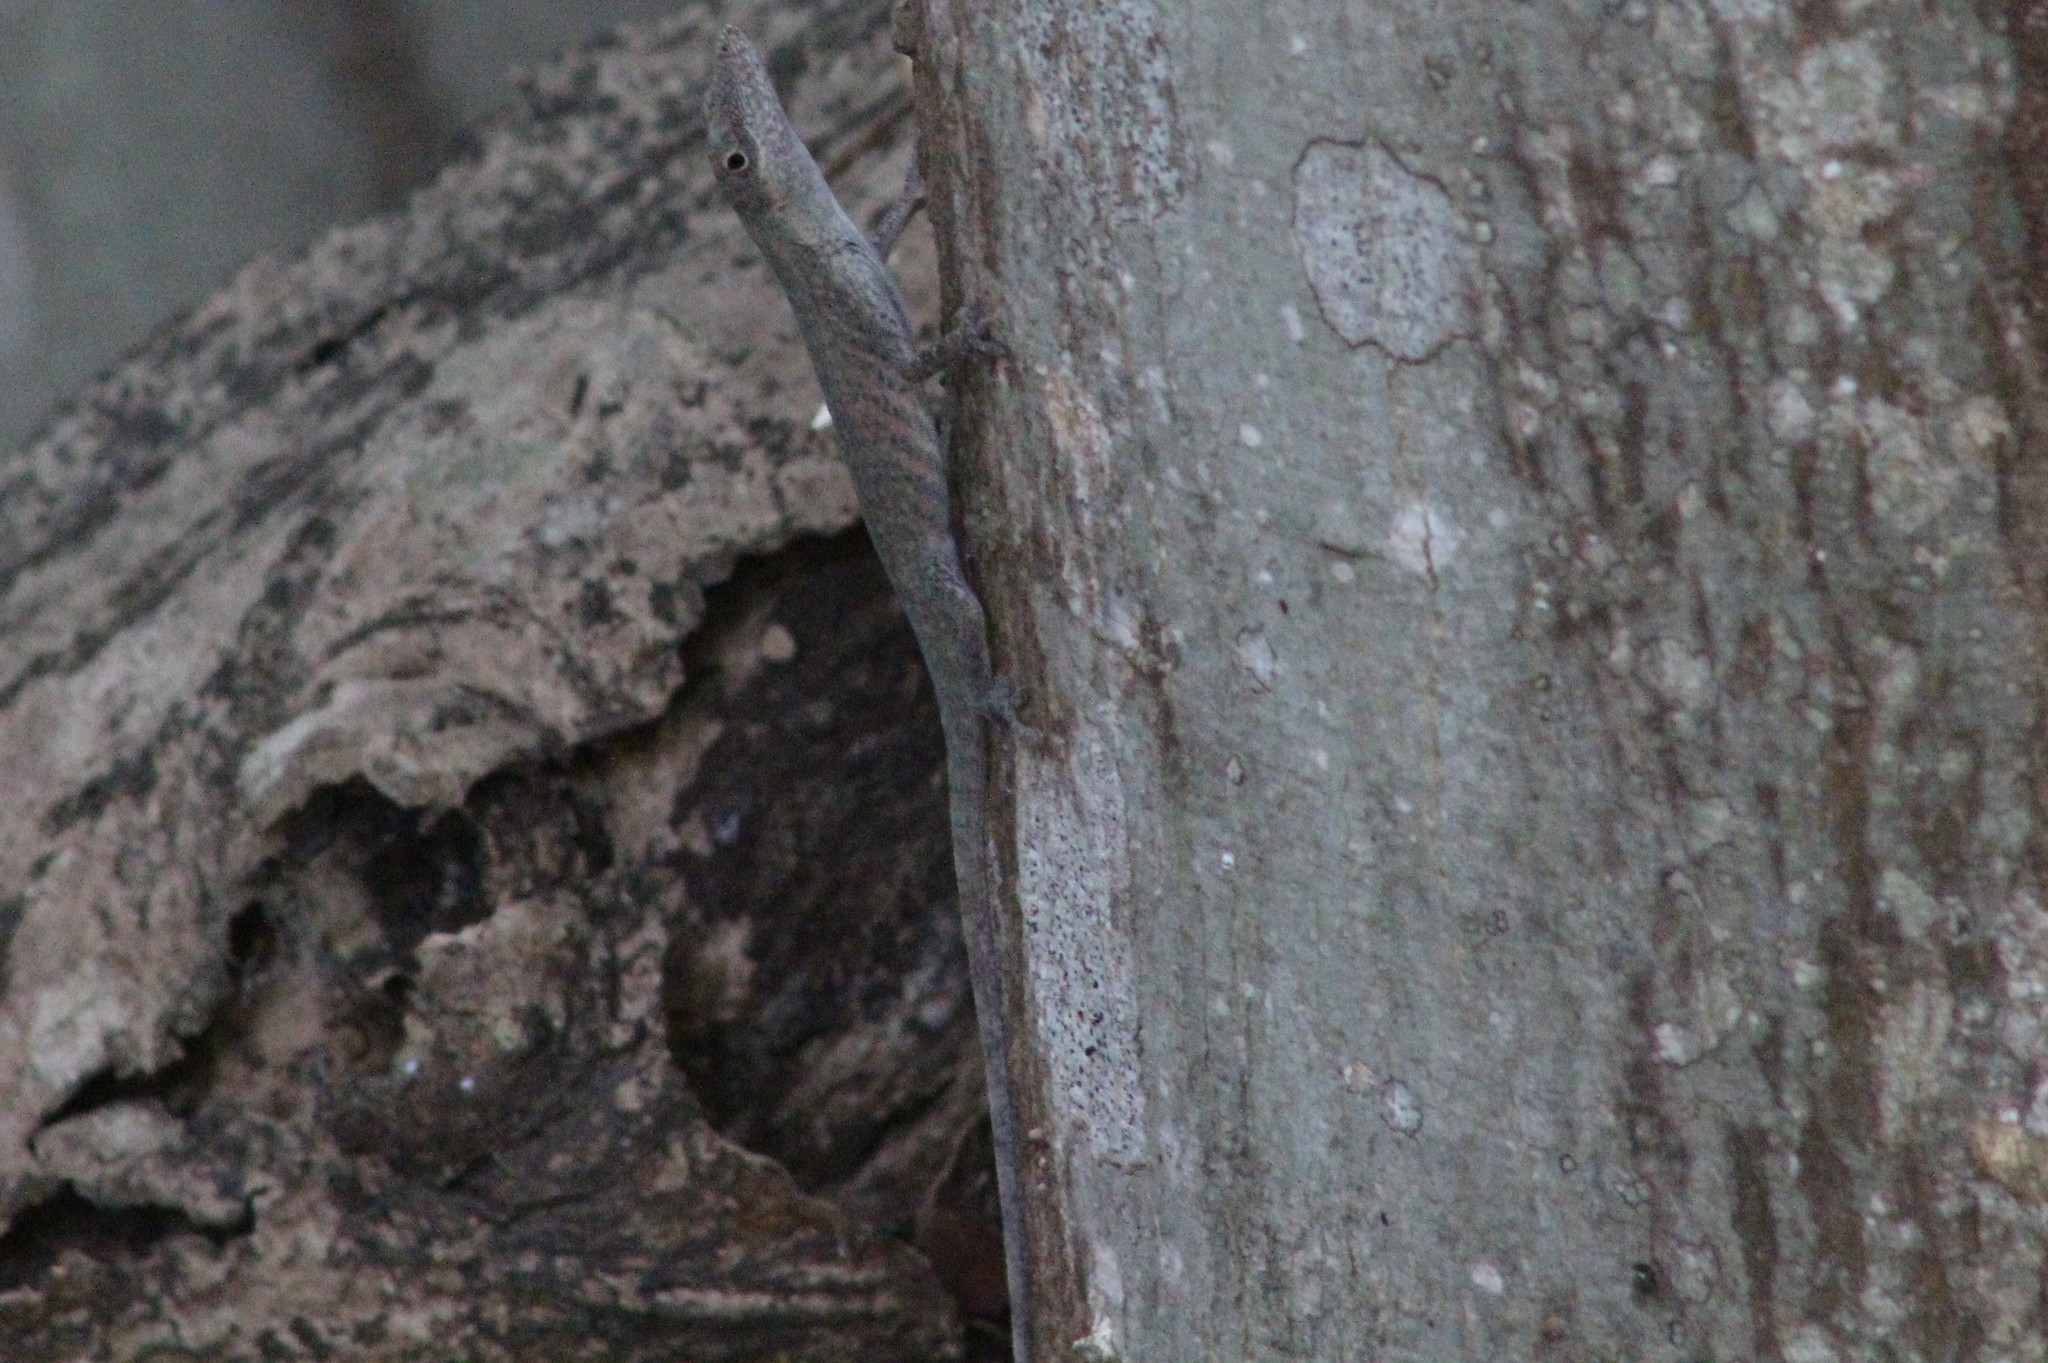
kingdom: Animalia
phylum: Chordata
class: Squamata
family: Dactyloidae
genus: Anolis
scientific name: Anolis festae
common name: Veronica's anole
